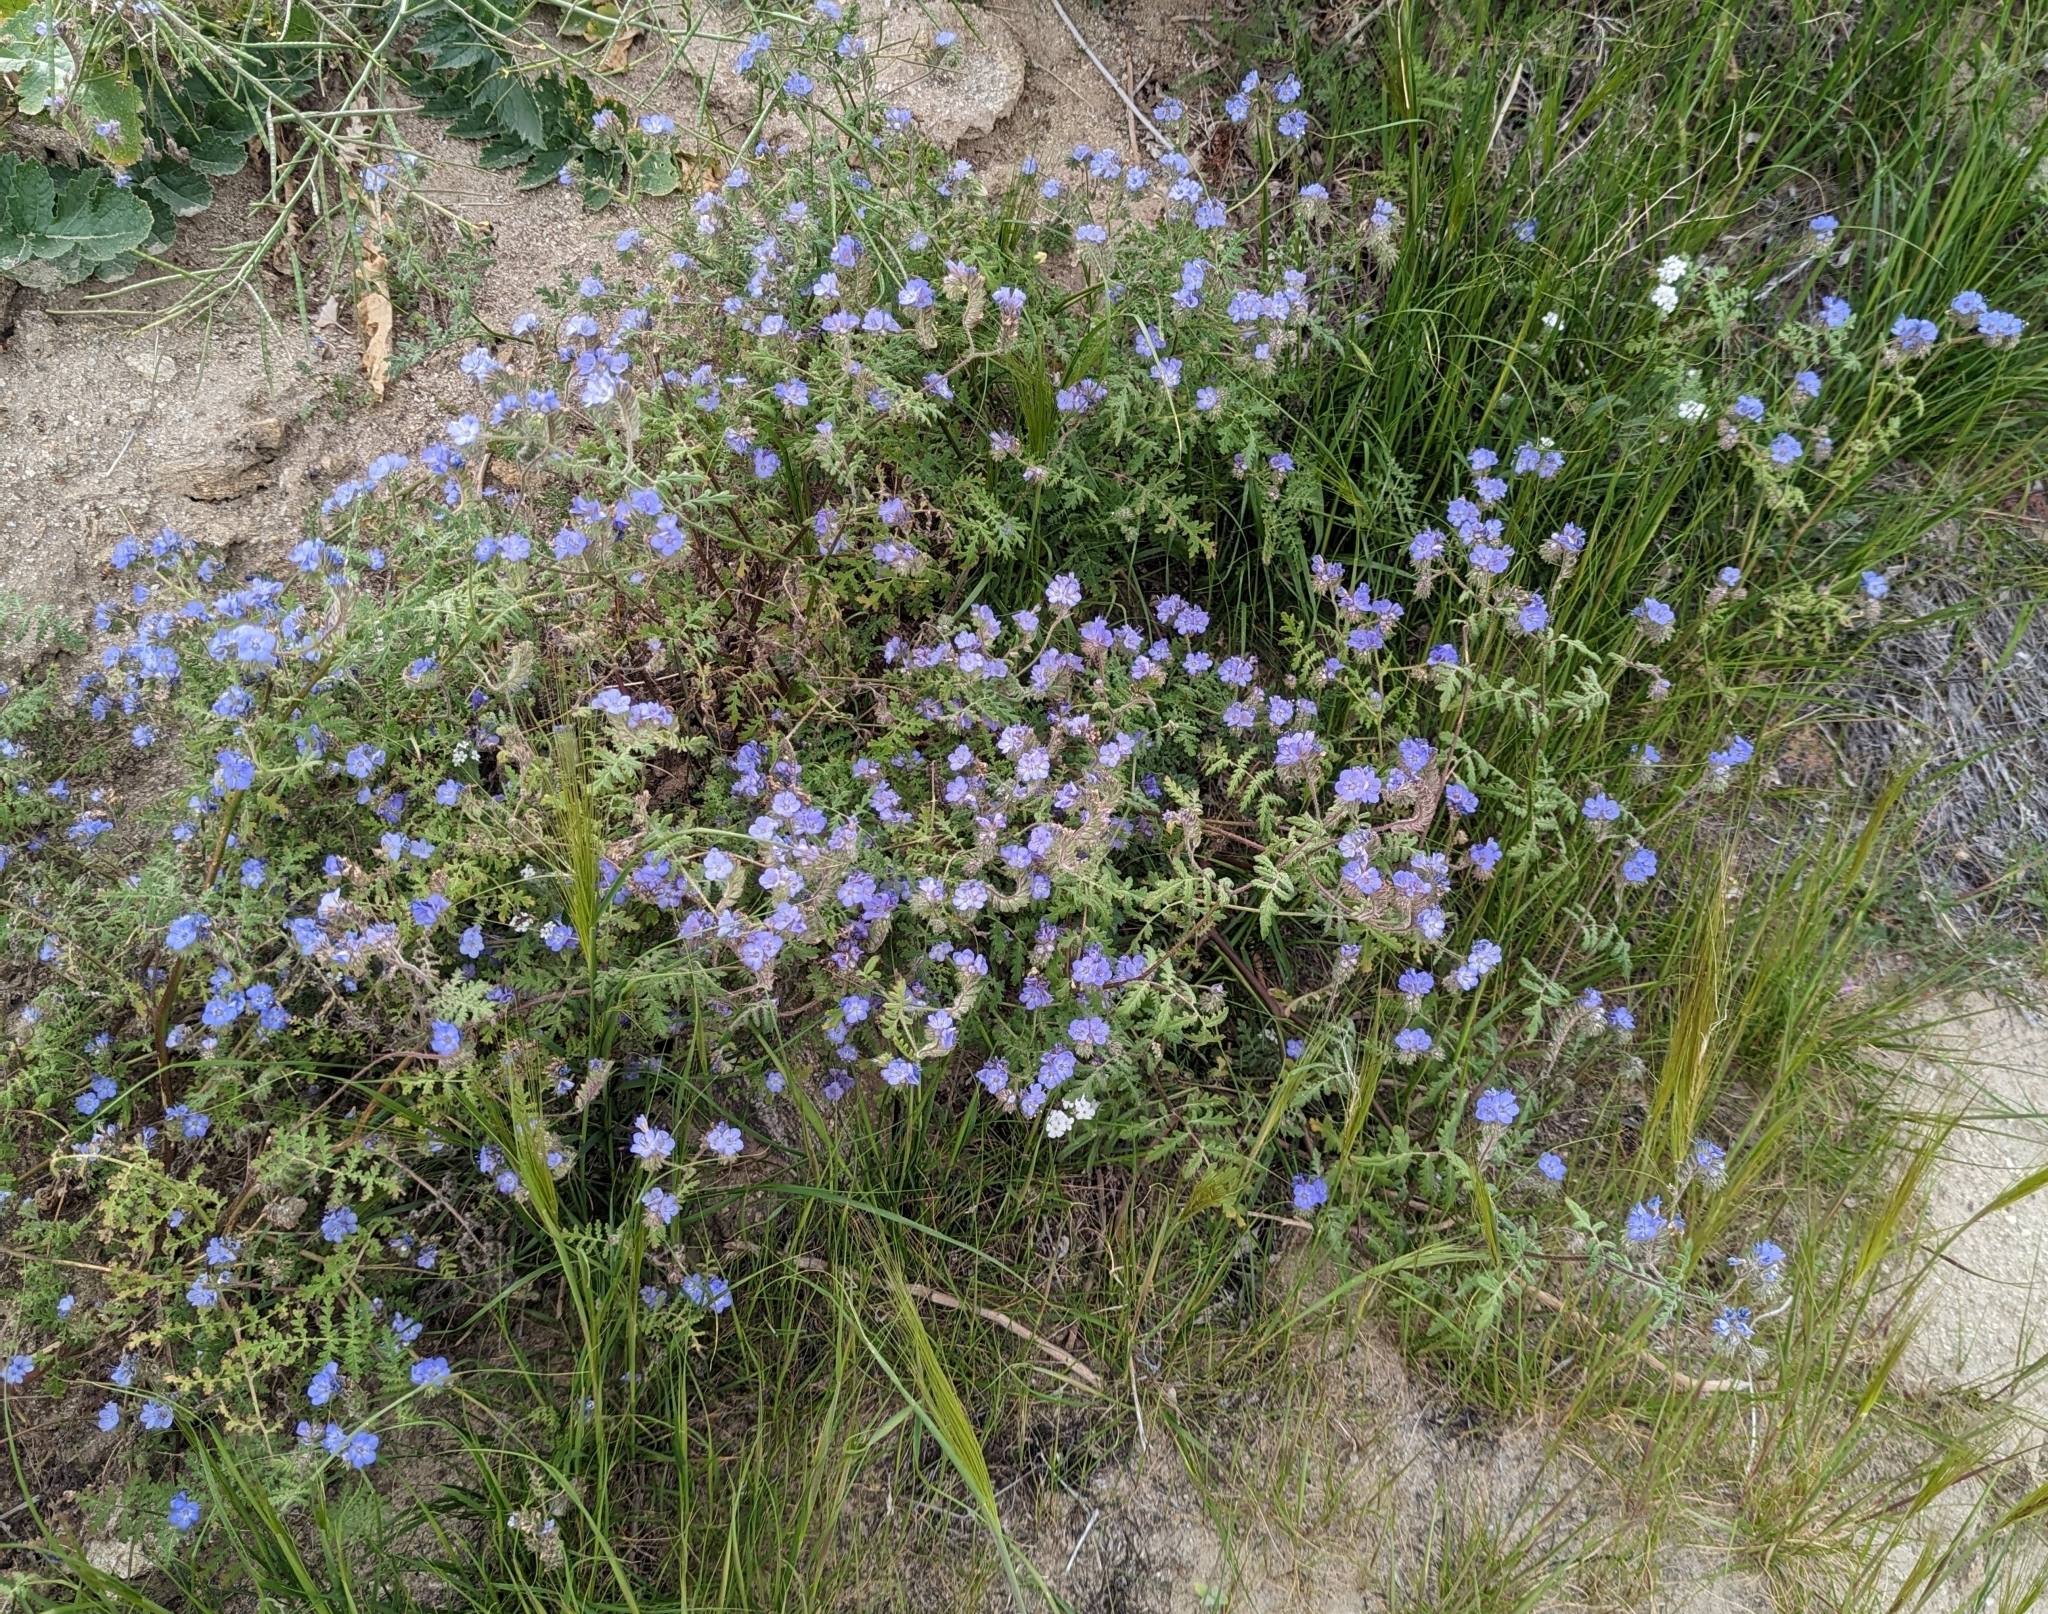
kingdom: Plantae
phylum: Tracheophyta
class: Magnoliopsida
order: Boraginales
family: Hydrophyllaceae
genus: Phacelia
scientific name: Phacelia distans
